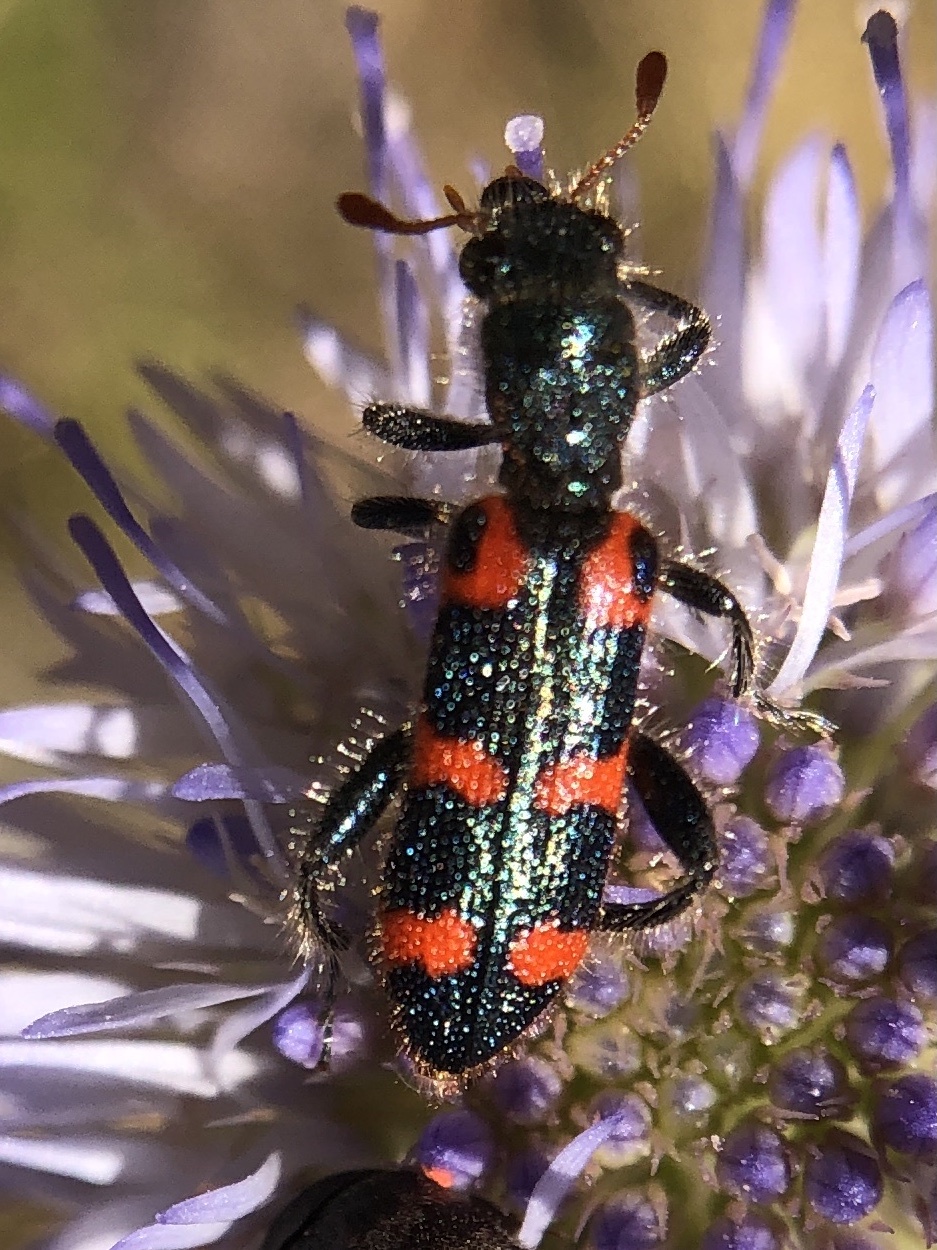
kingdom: Animalia
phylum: Arthropoda
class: Insecta
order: Coleoptera
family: Cleridae
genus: Trichodes
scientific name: Trichodes leucopsideus
